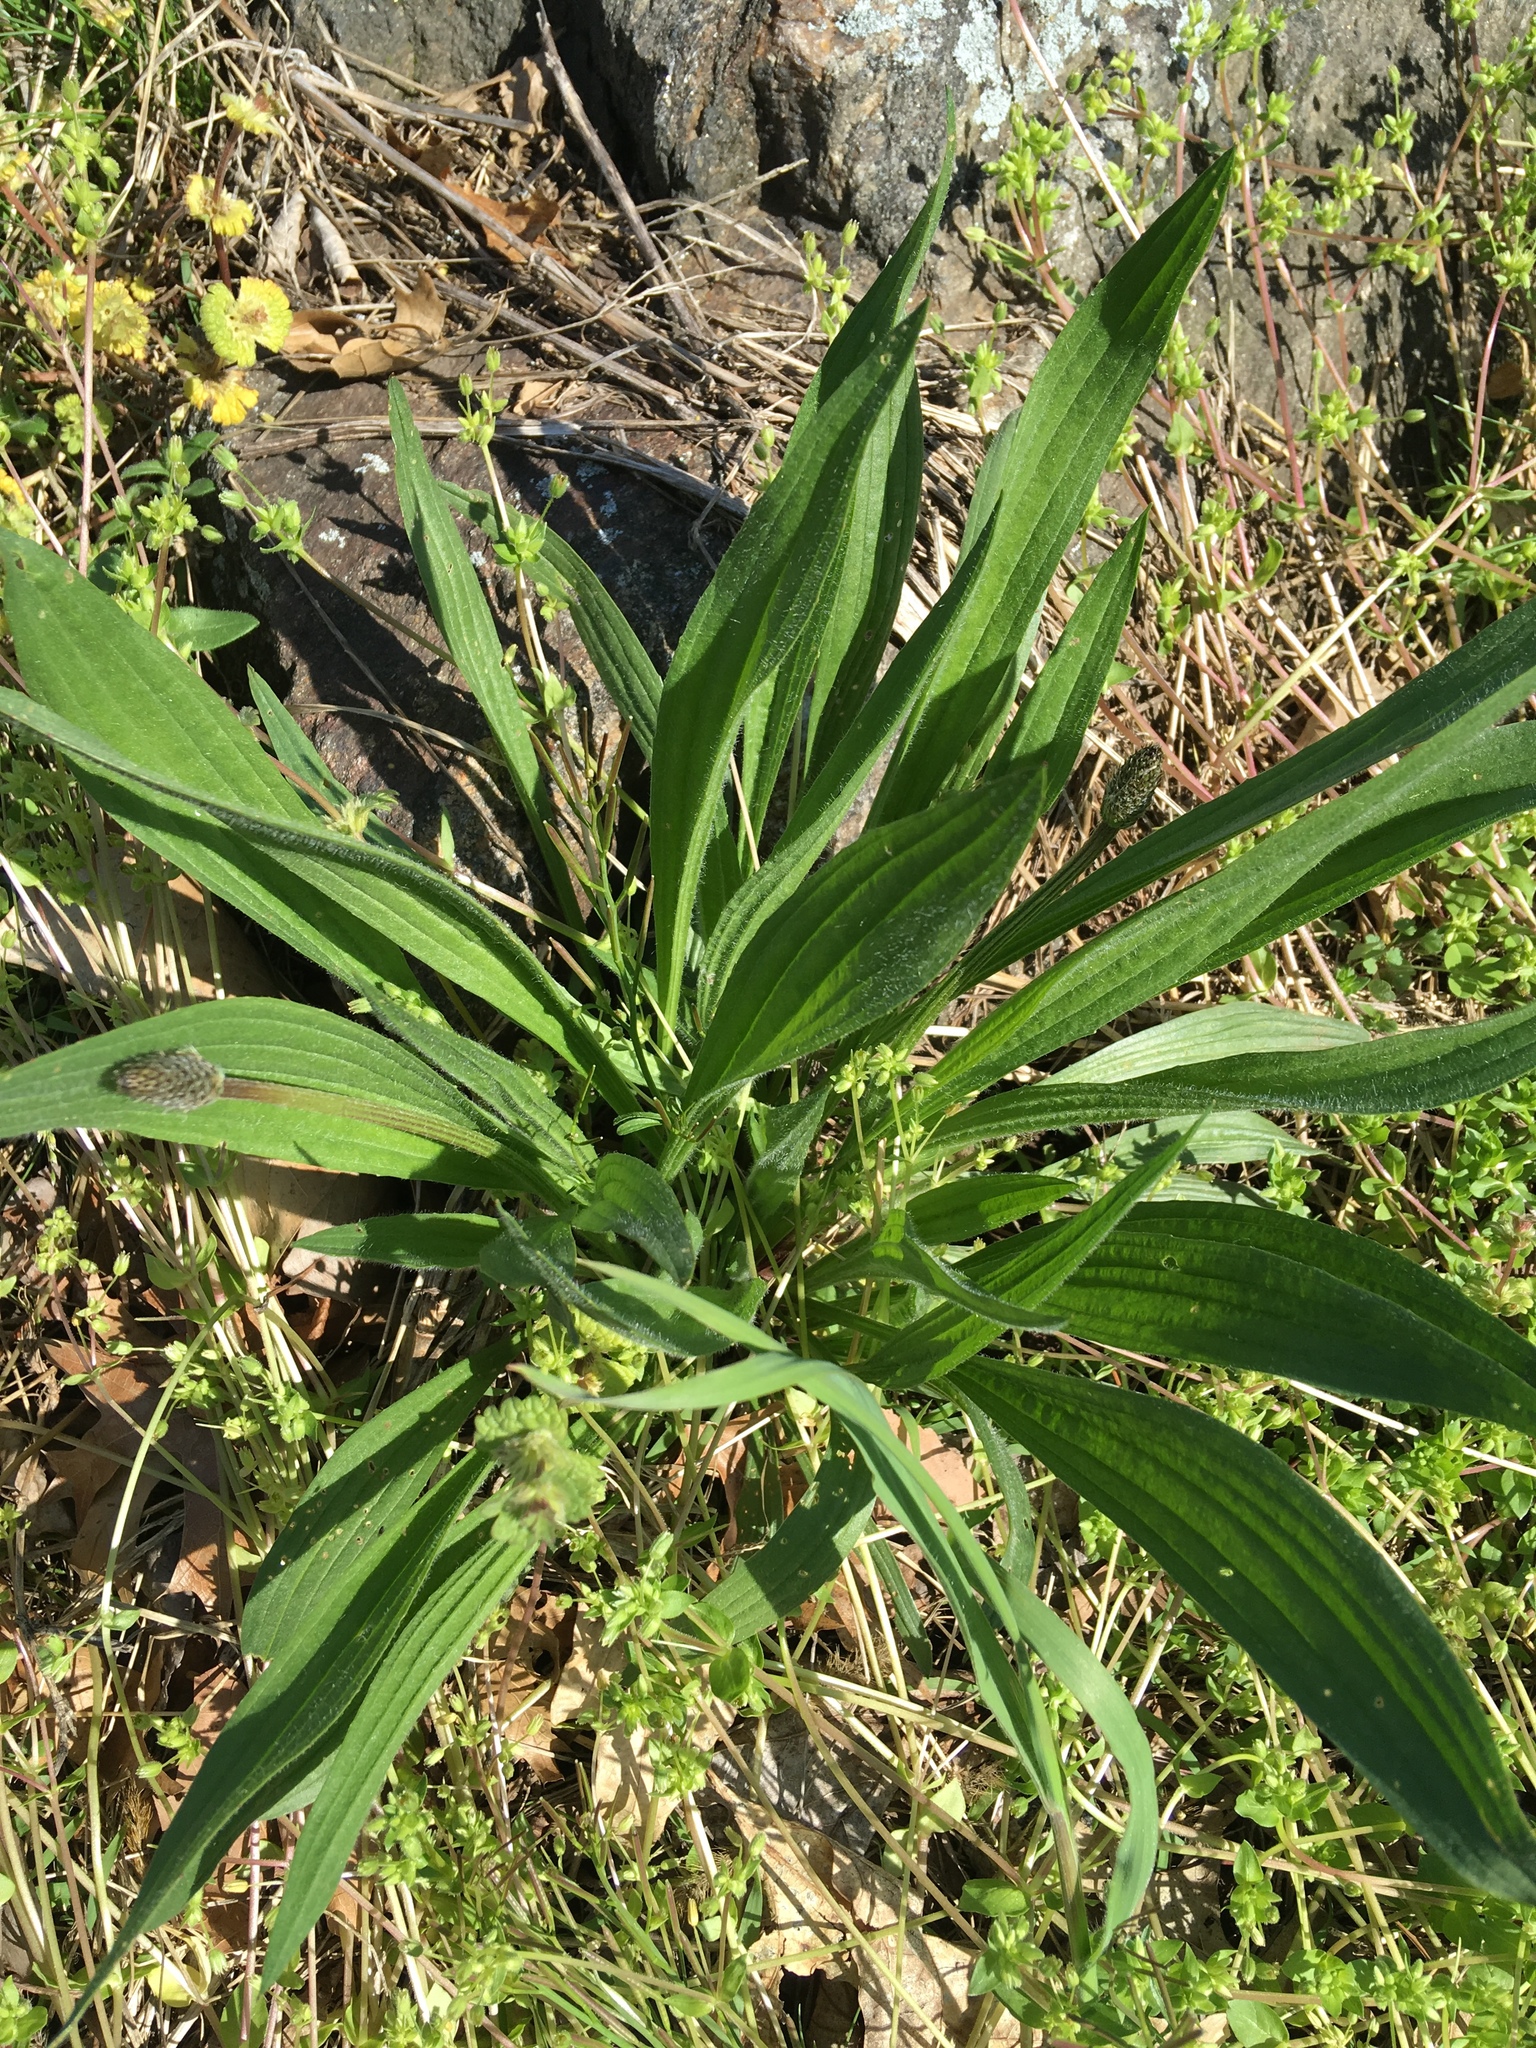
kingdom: Plantae
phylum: Tracheophyta
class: Magnoliopsida
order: Lamiales
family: Plantaginaceae
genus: Plantago
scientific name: Plantago lanceolata
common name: Ribwort plantain
